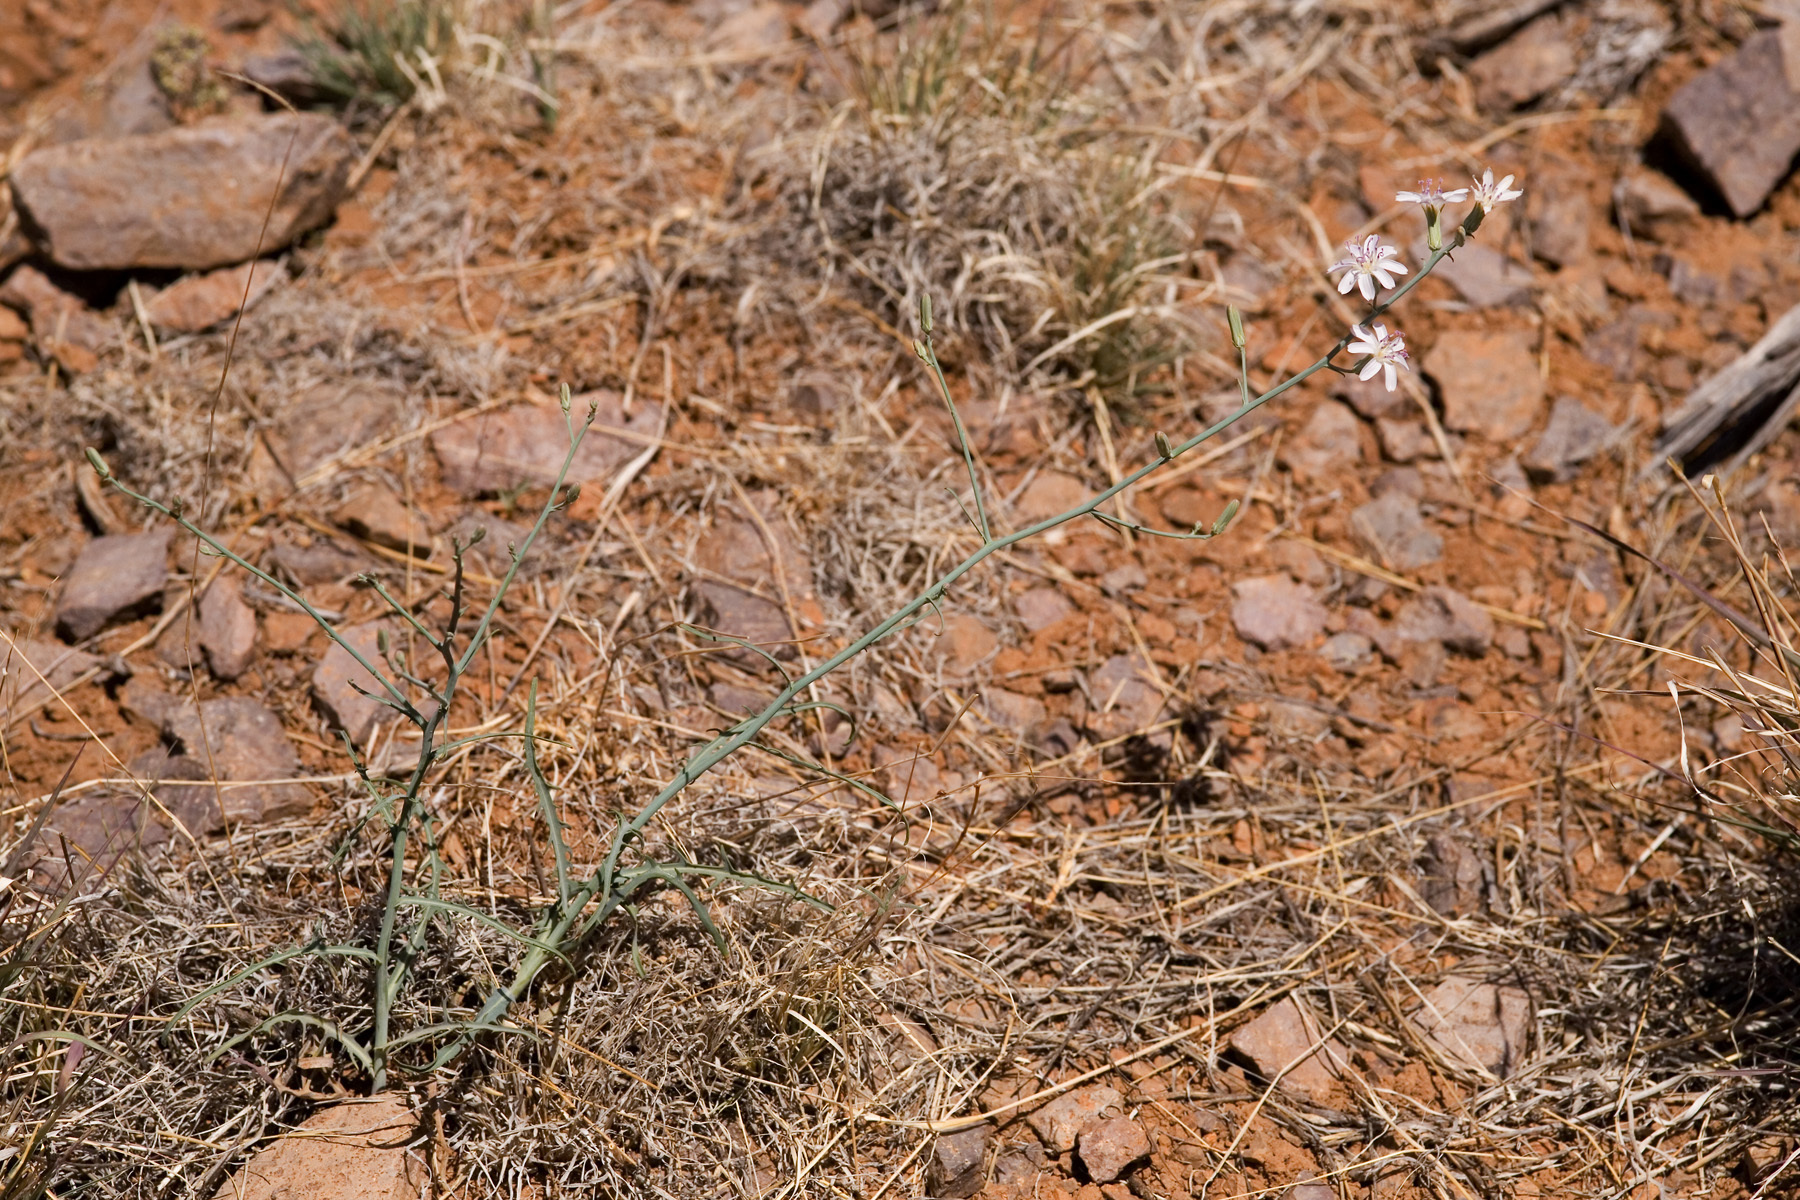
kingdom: Plantae
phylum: Tracheophyta
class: Magnoliopsida
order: Asterales
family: Asteraceae
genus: Stephanomeria
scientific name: Stephanomeria thurberi
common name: Thurber's wire-lettuce
